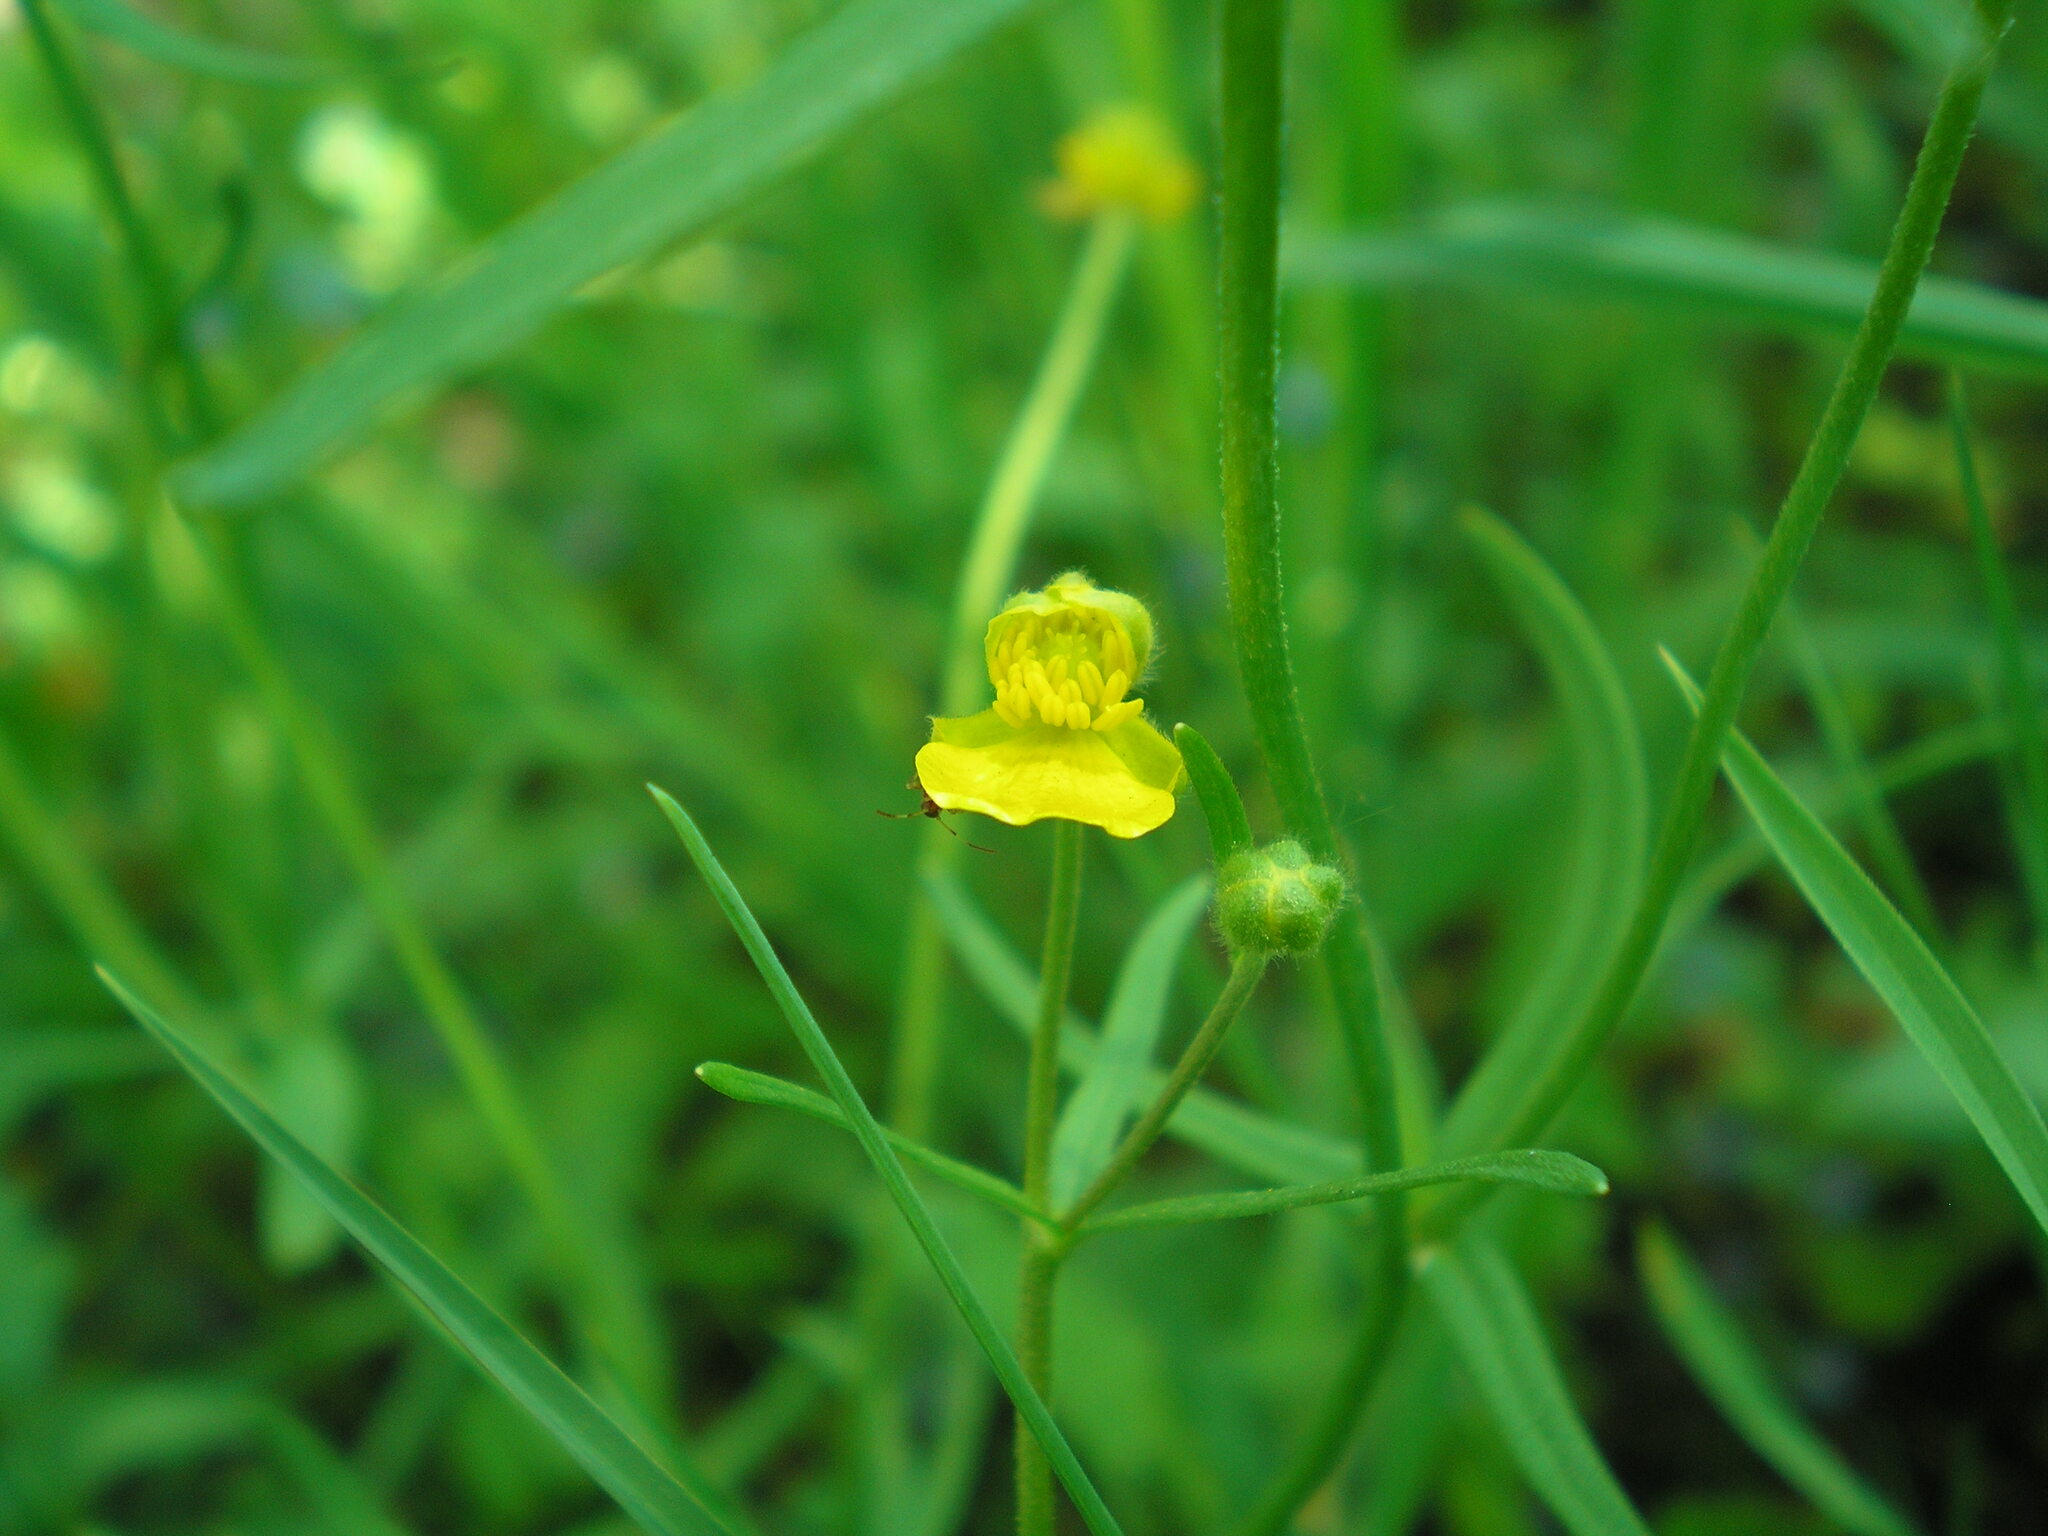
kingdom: Plantae
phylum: Tracheophyta
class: Magnoliopsida
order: Ranunculales
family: Ranunculaceae
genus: Ranunculus
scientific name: Ranunculus auricomus
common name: Goldilocks buttercup
